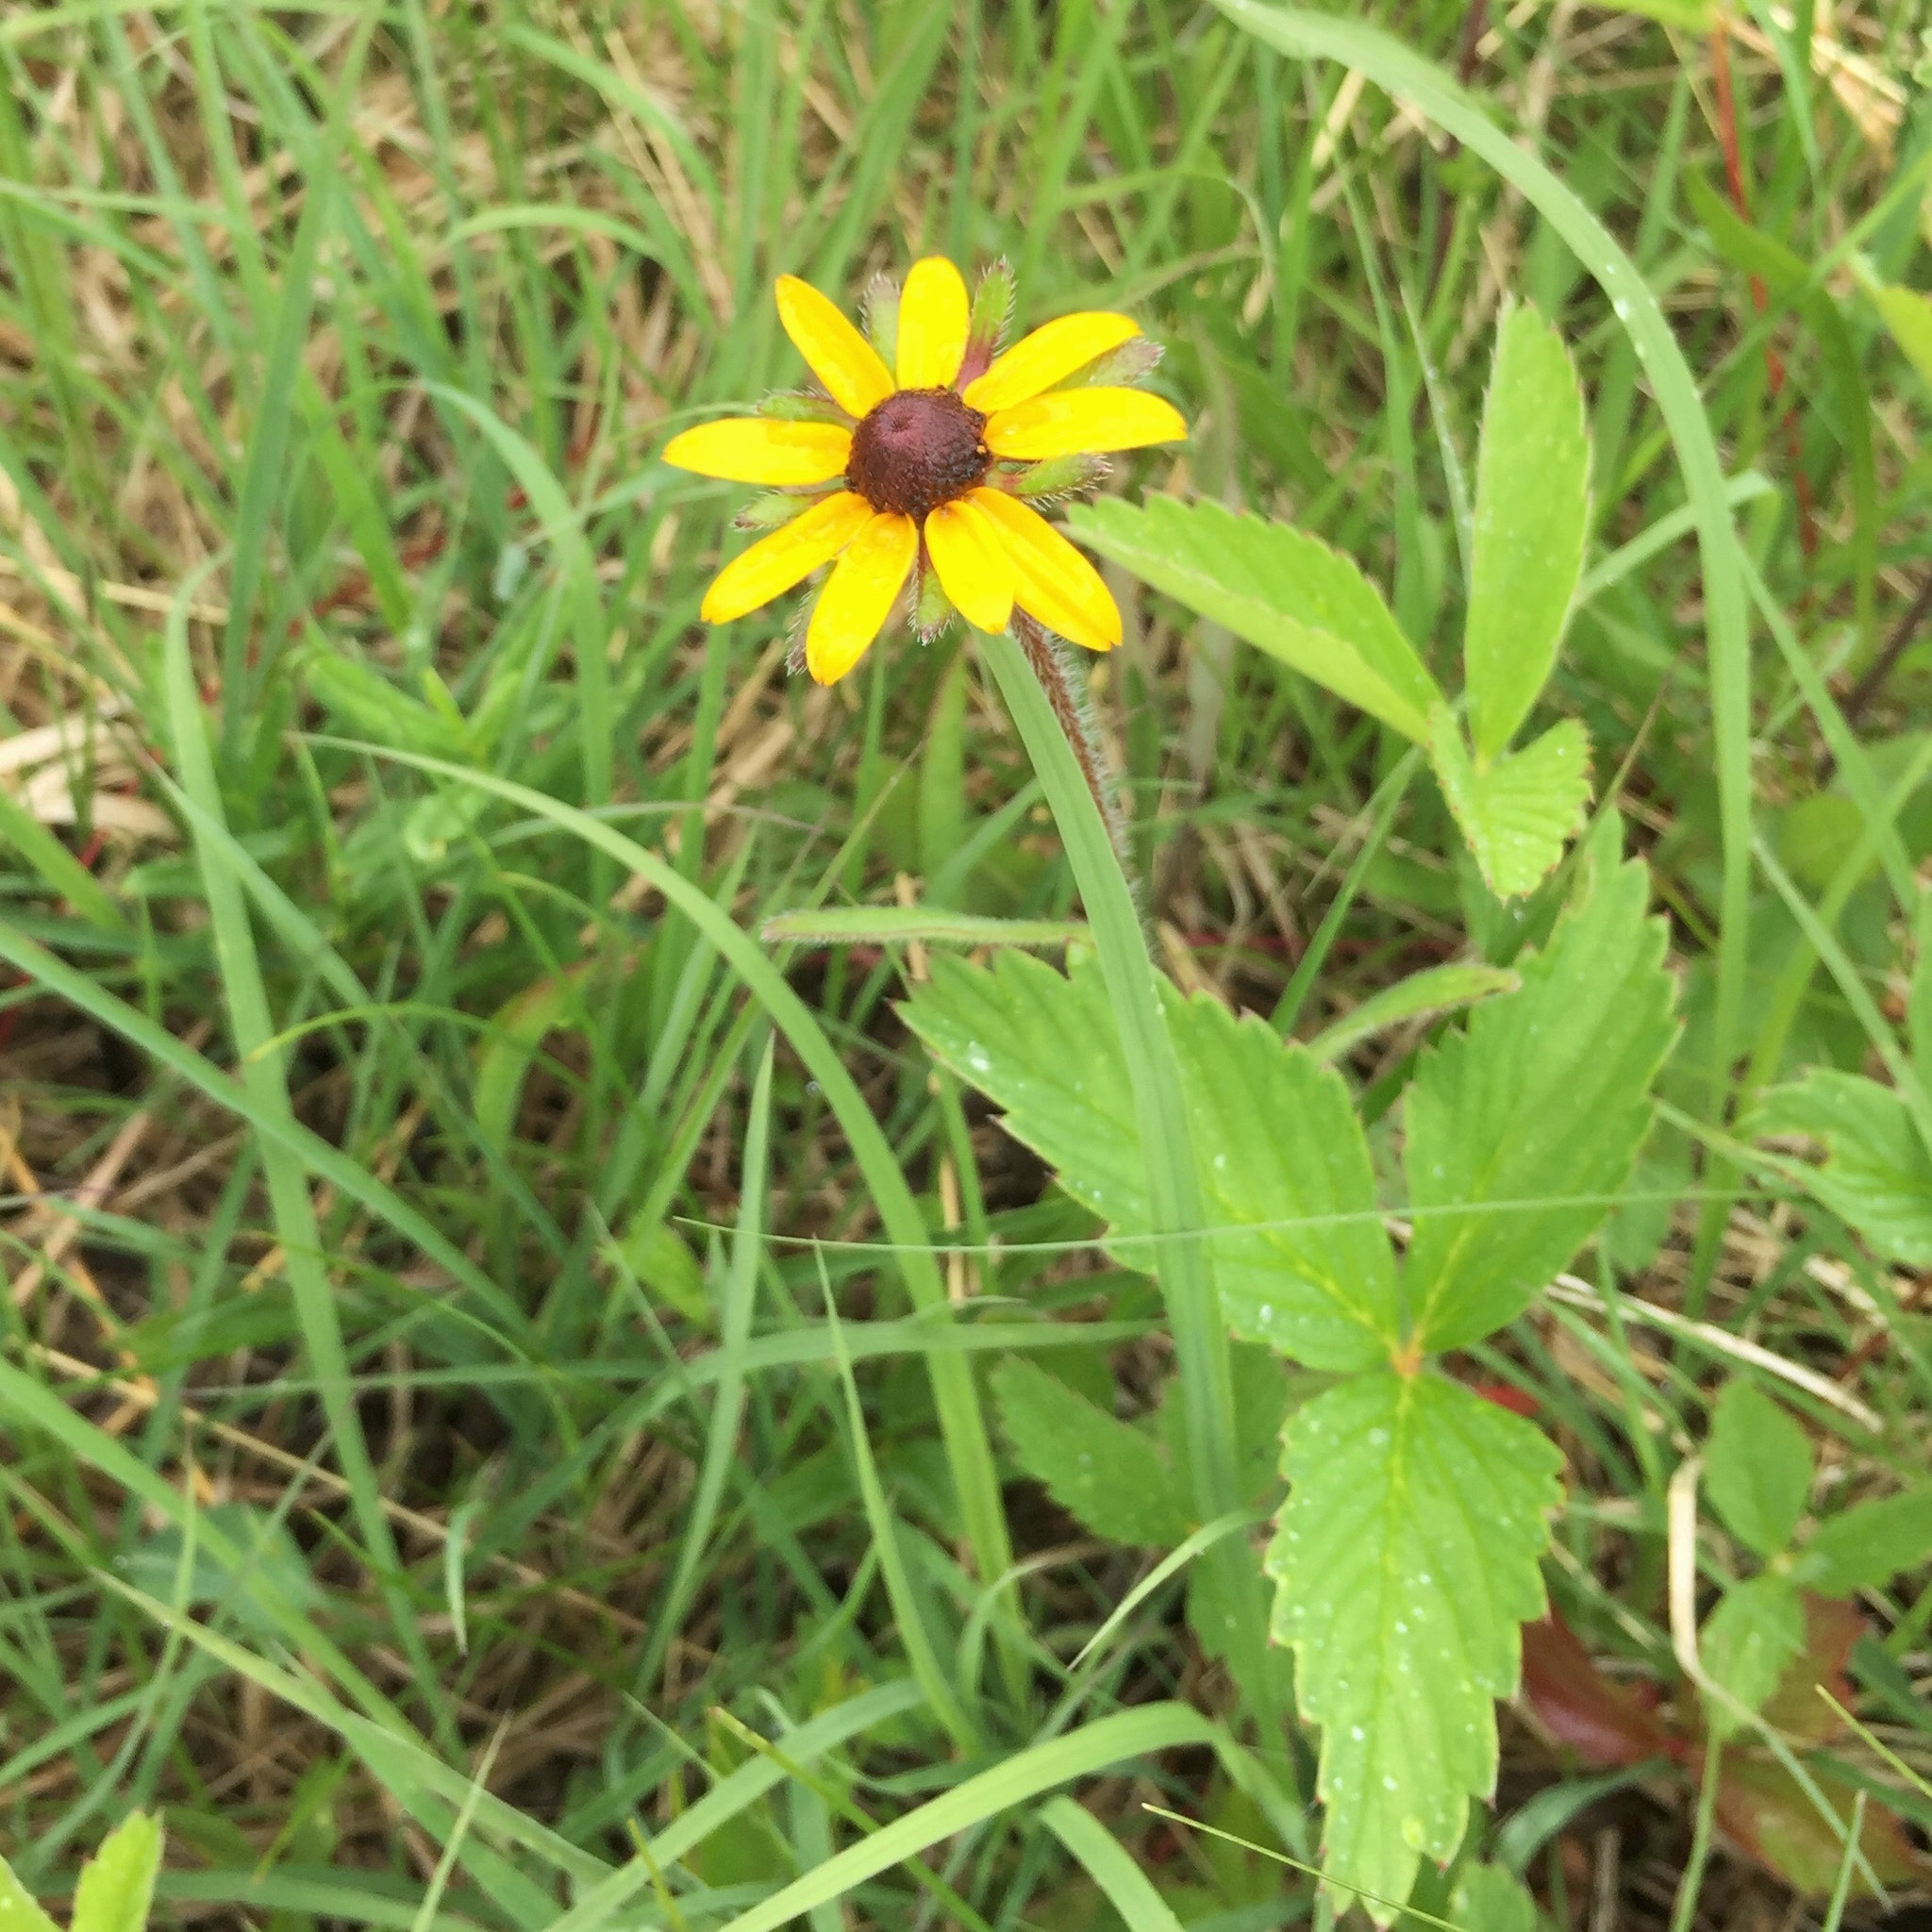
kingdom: Plantae
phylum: Tracheophyta
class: Magnoliopsida
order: Asterales
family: Asteraceae
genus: Rudbeckia
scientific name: Rudbeckia hirta
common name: Black-eyed-susan
